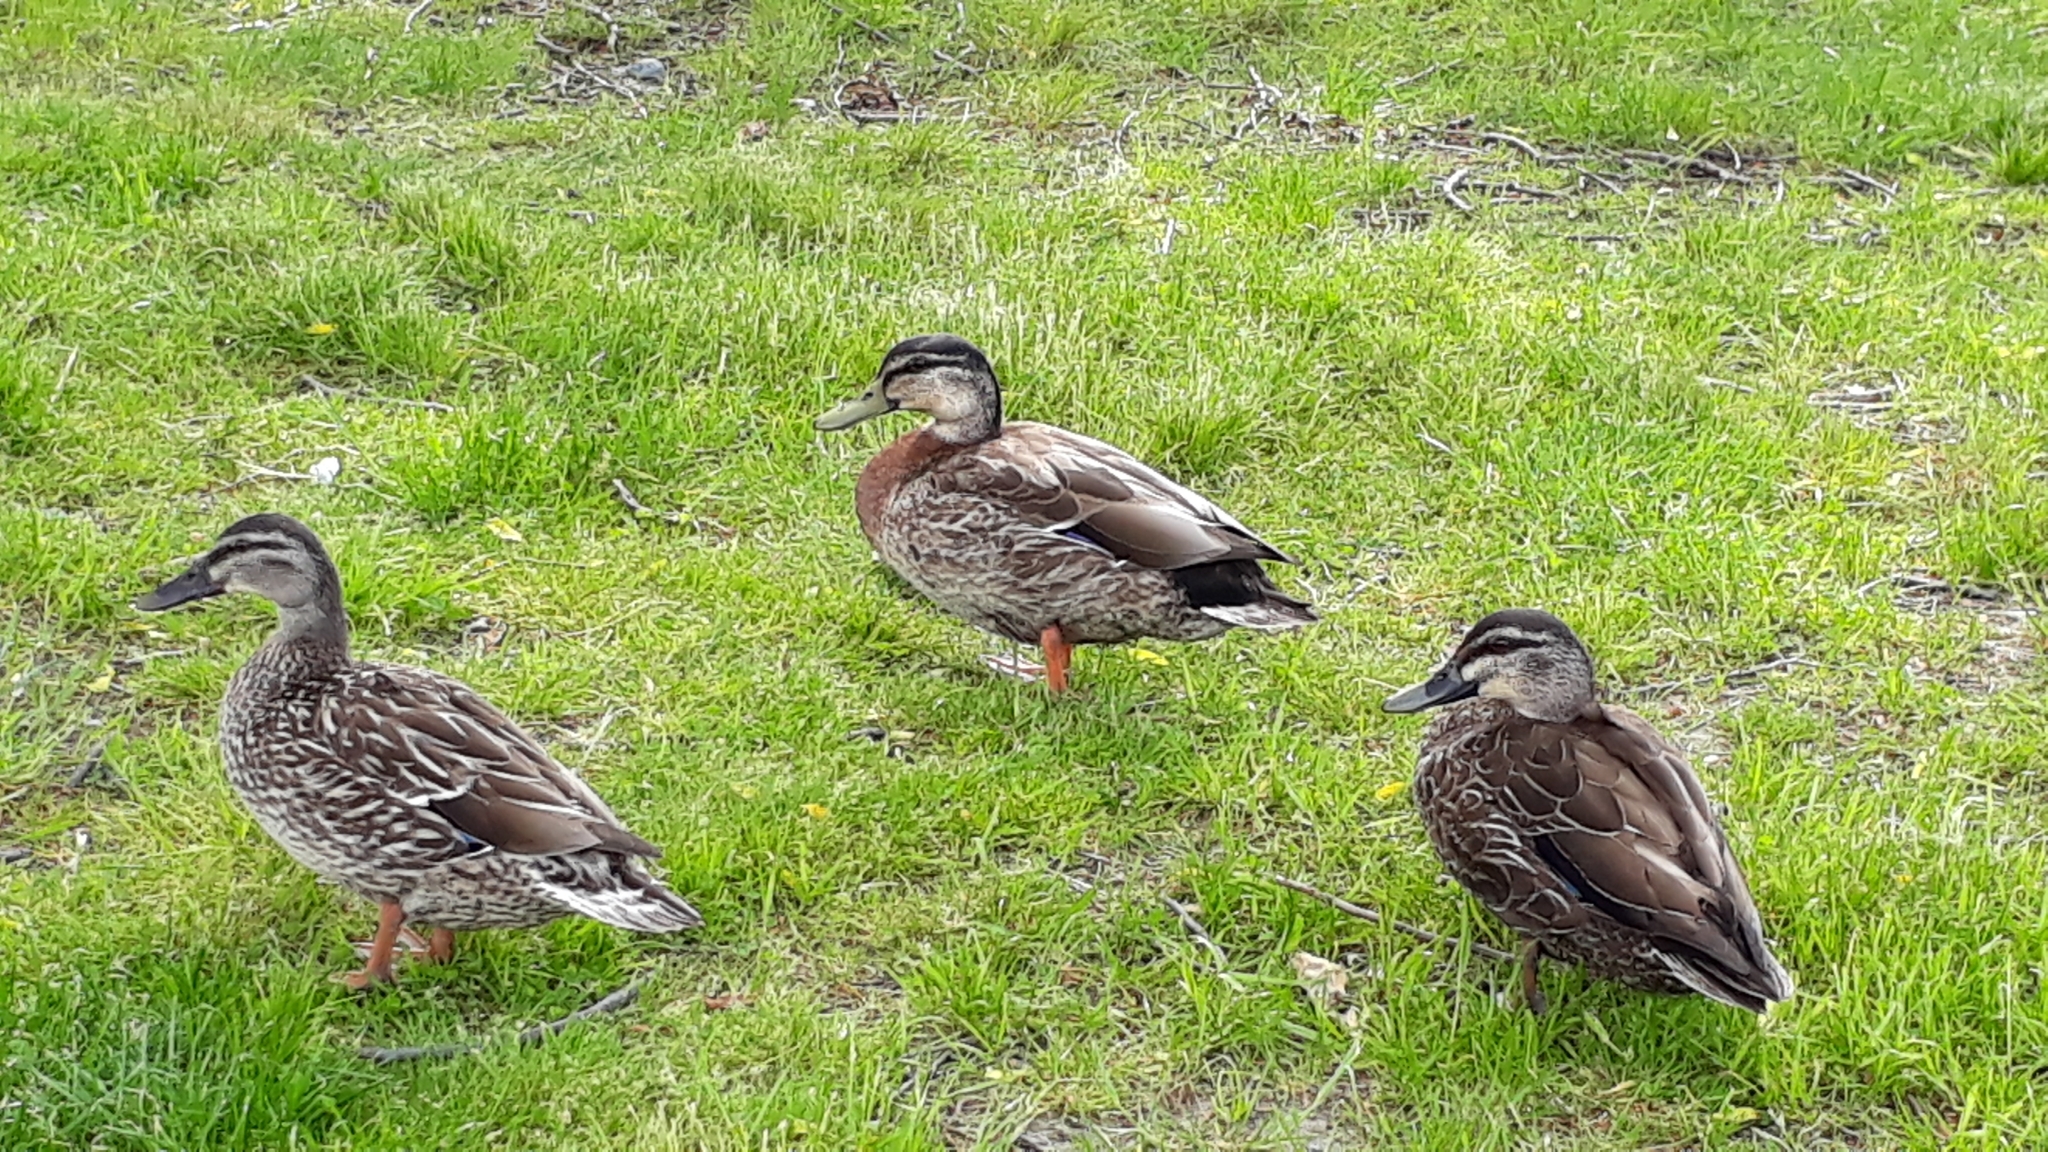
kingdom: Animalia
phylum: Chordata
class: Aves
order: Anseriformes
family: Anatidae
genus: Anas
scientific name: Anas
